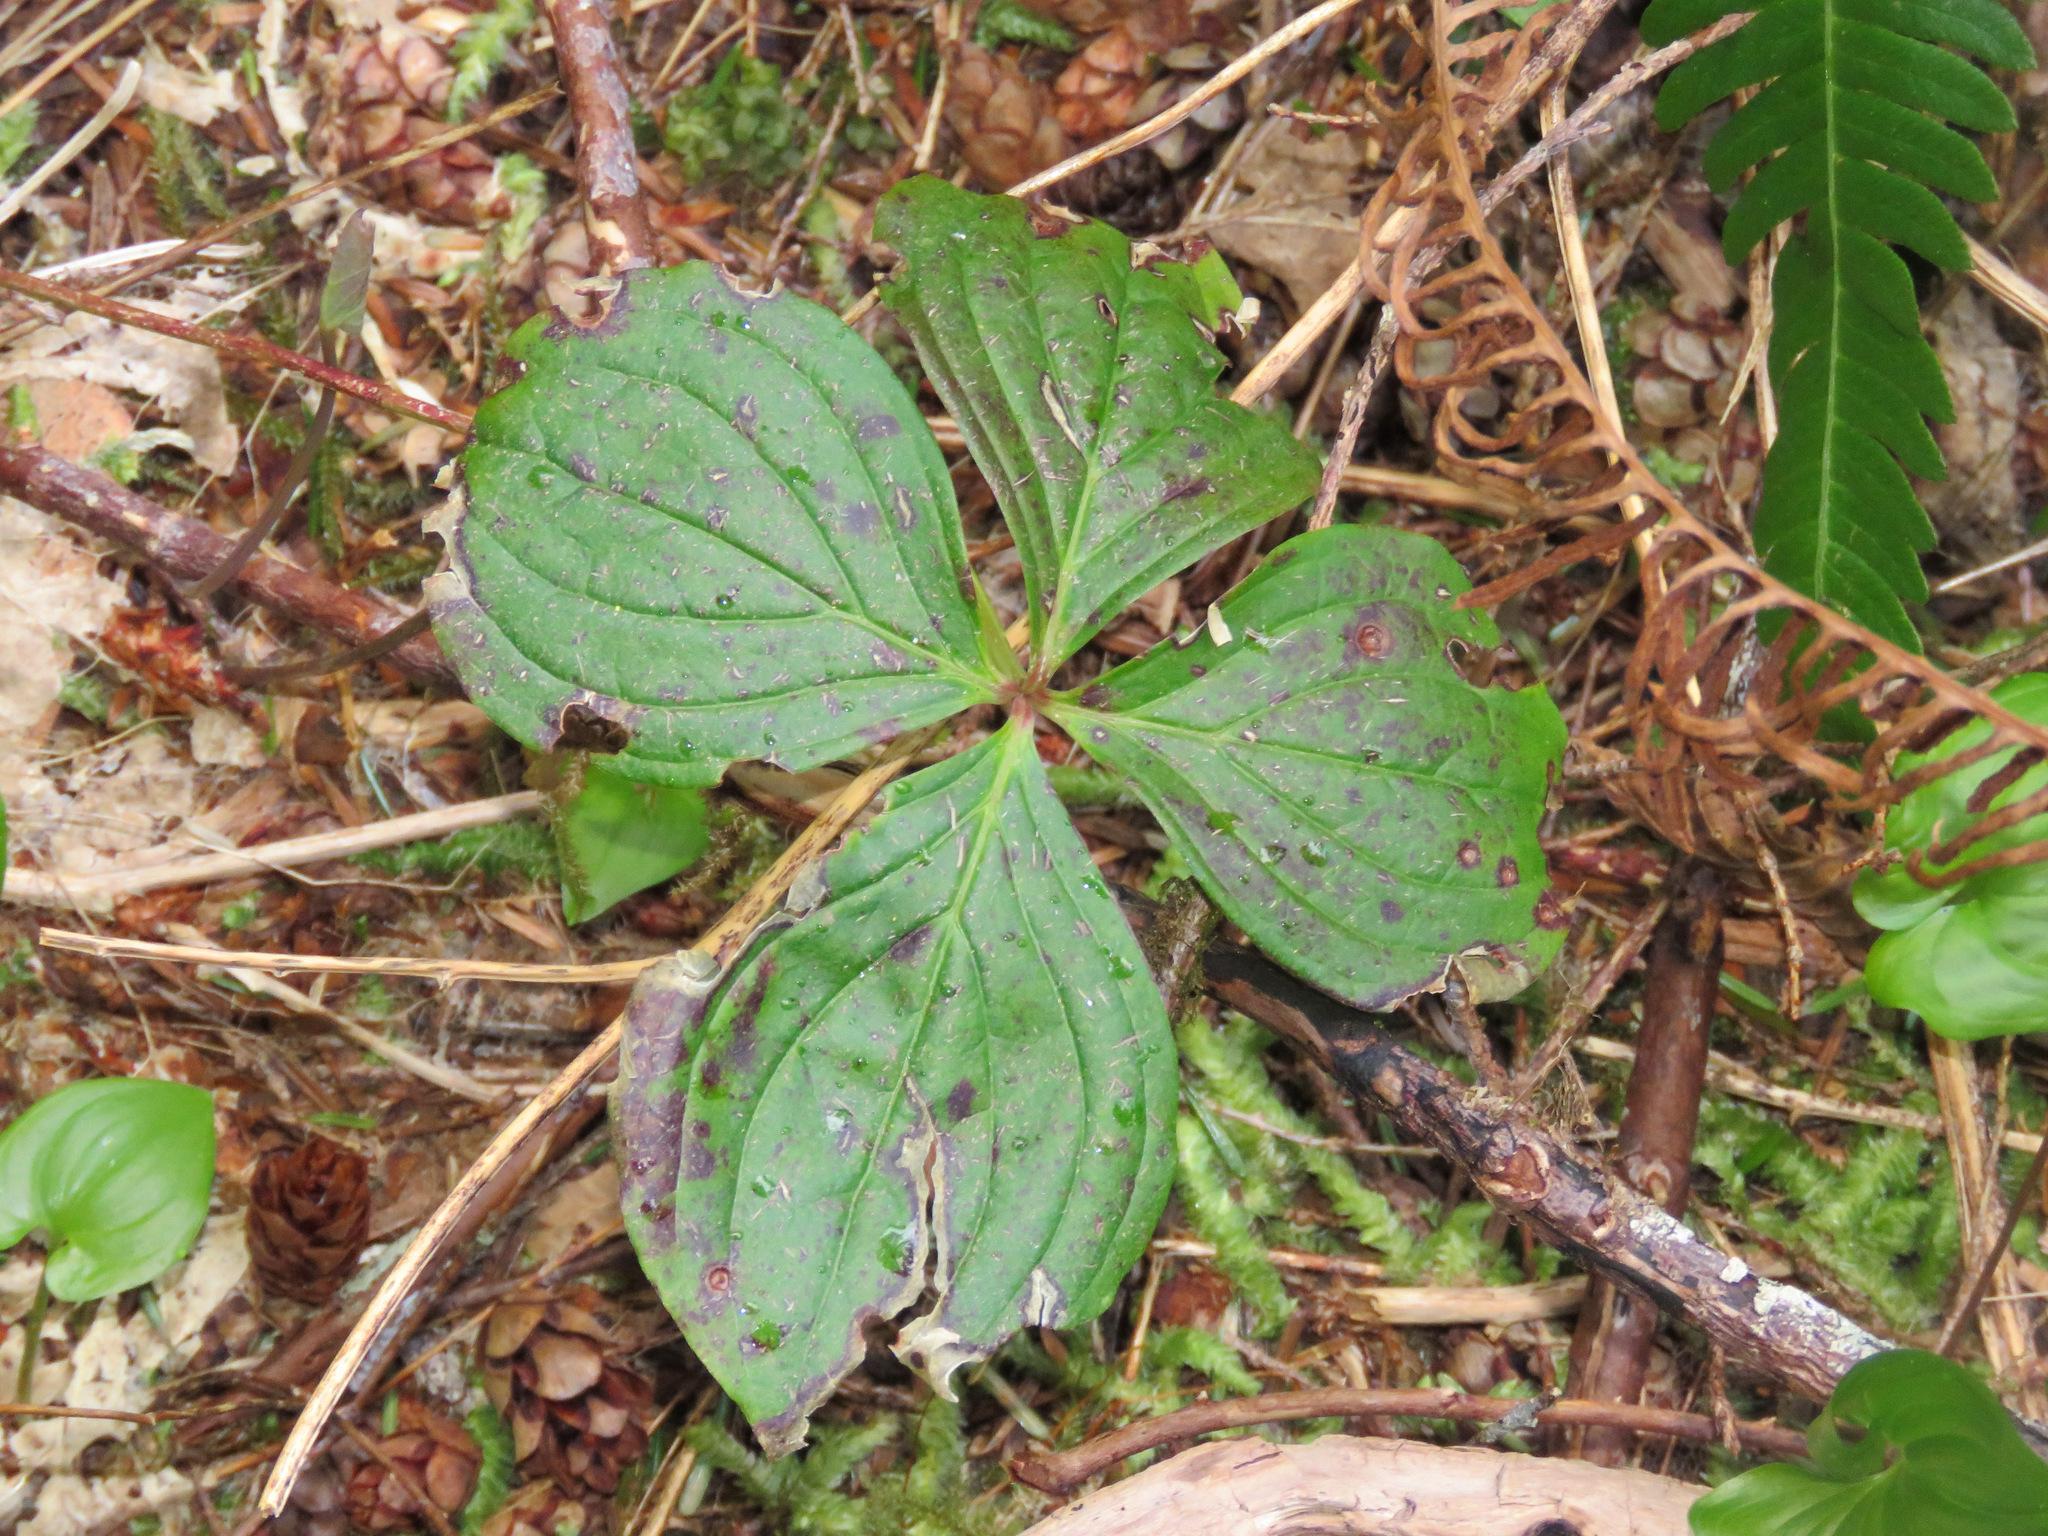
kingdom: Plantae
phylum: Tracheophyta
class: Magnoliopsida
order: Cornales
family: Cornaceae
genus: Cornus
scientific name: Cornus unalaschkensis
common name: Alaska bunchberry
